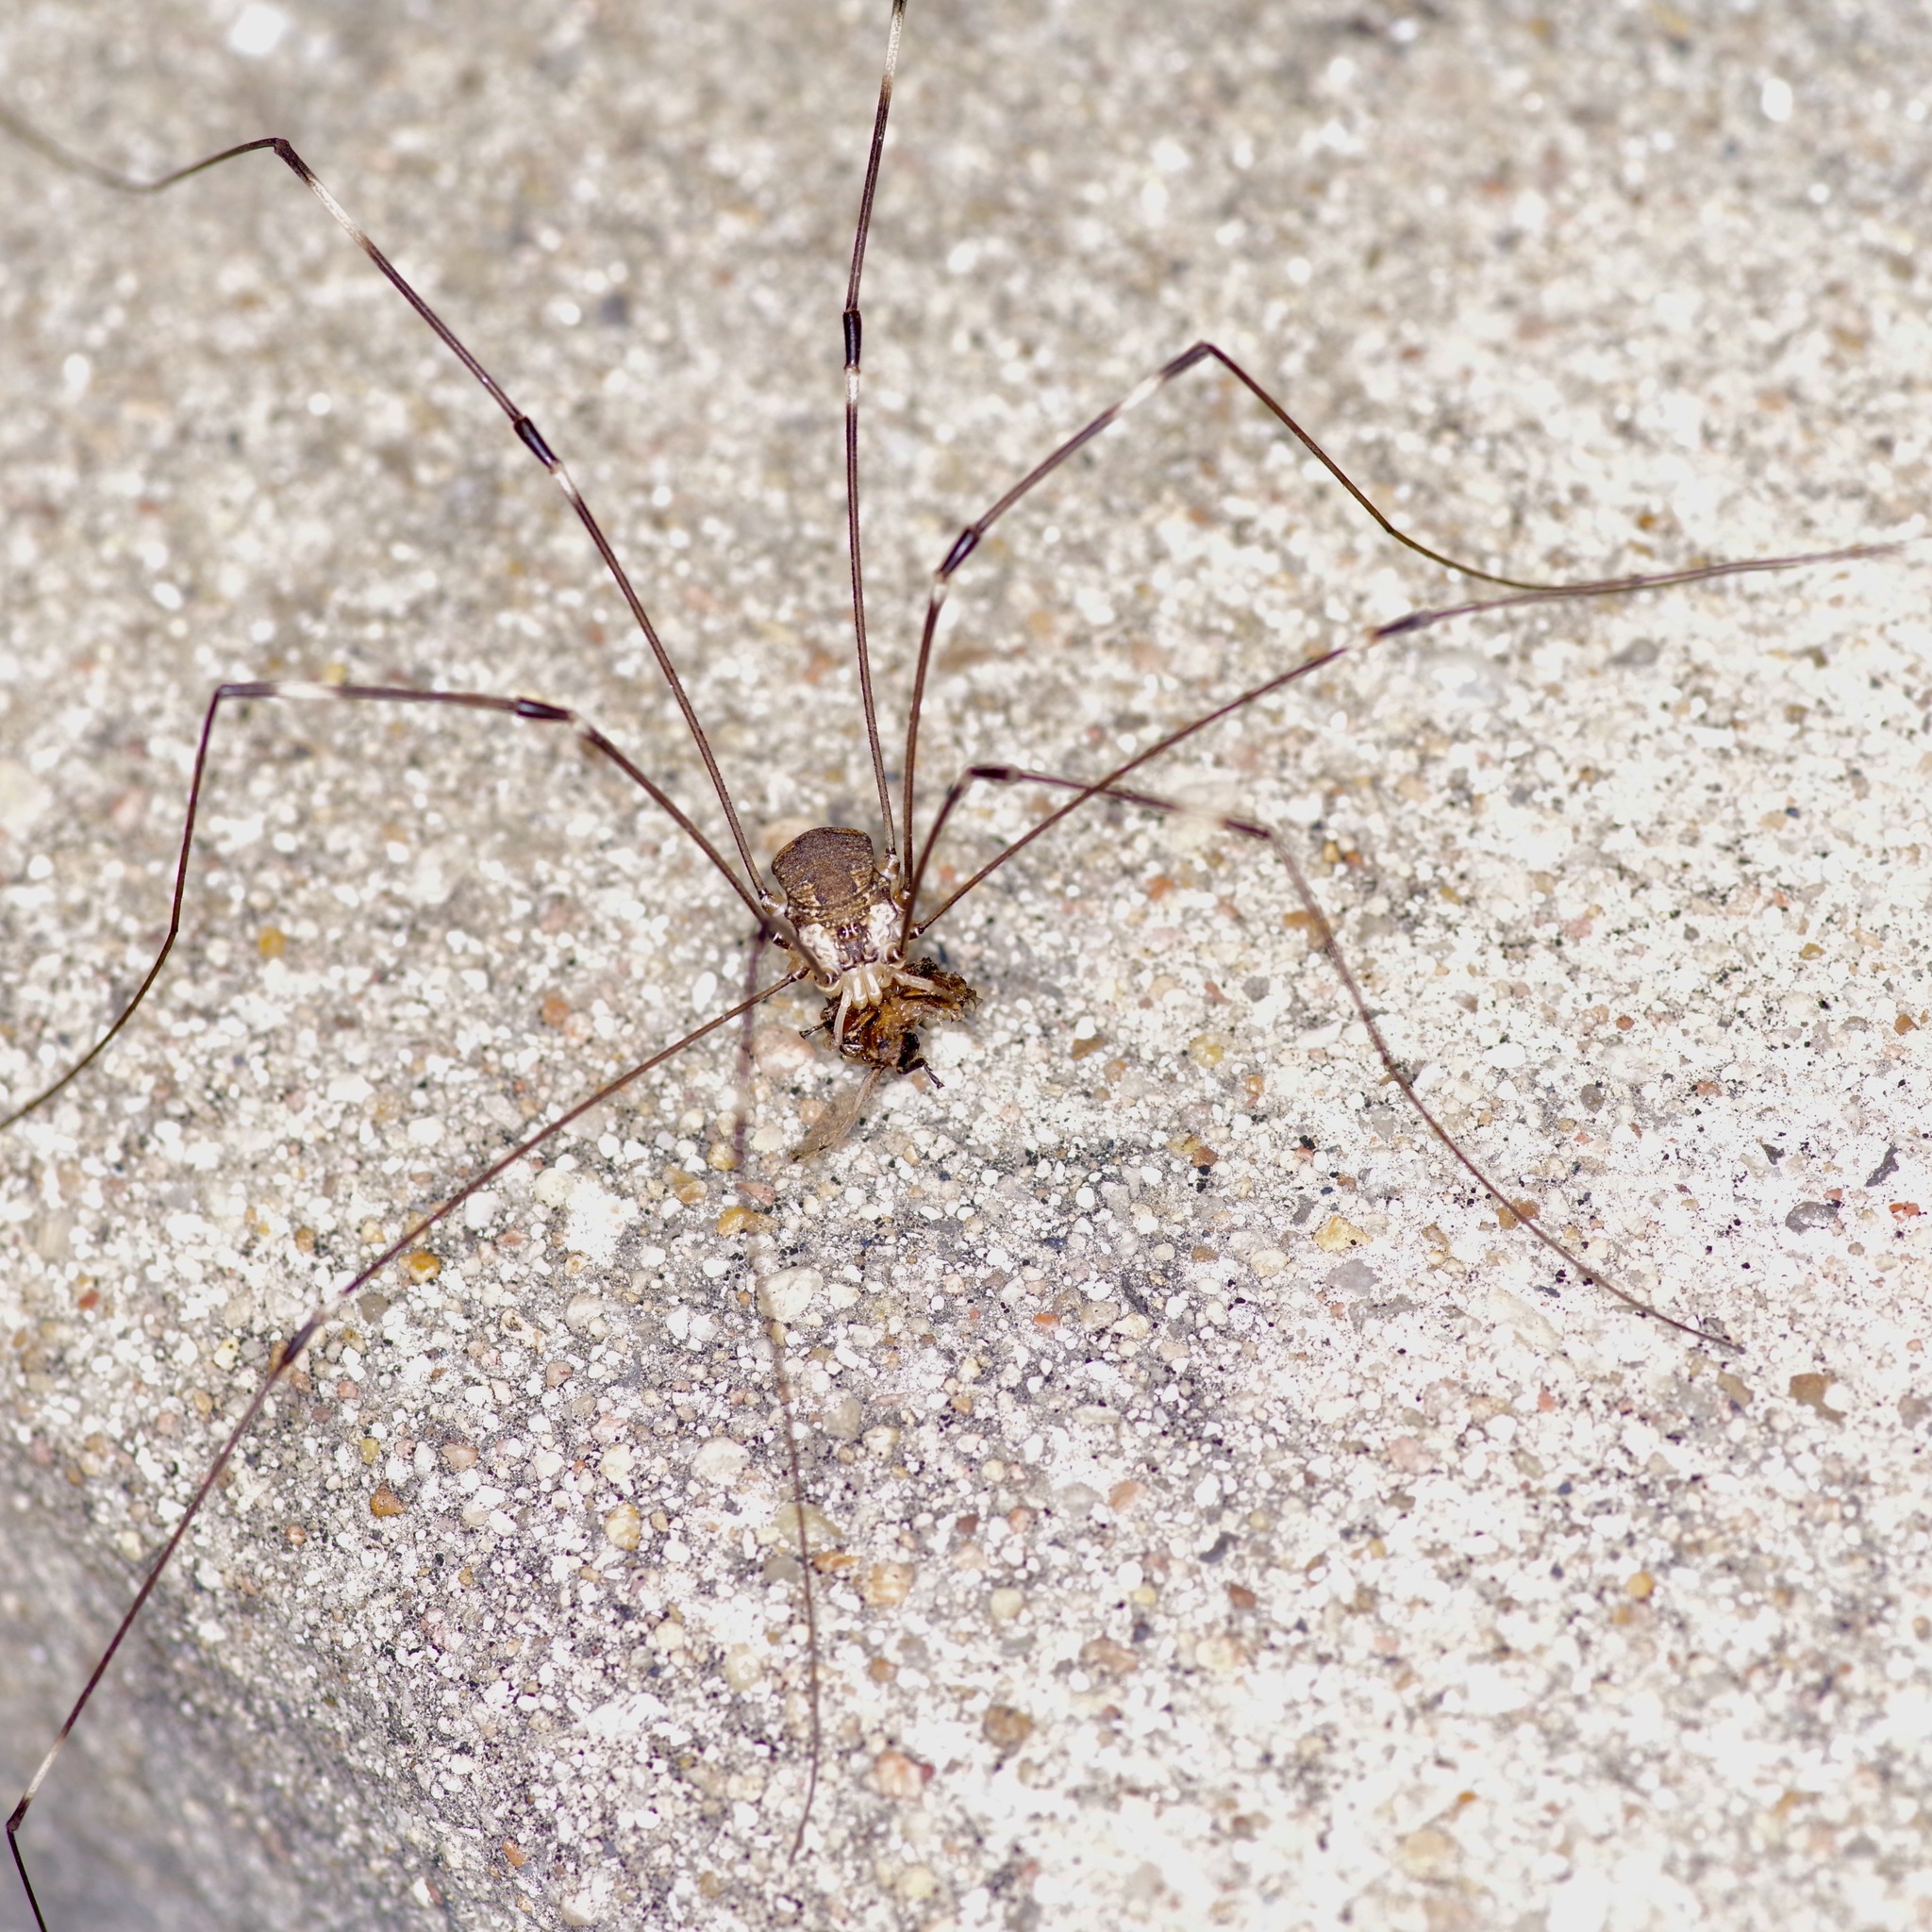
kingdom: Animalia
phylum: Arthropoda
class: Arachnida
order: Opiliones
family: Sclerosomatidae
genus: Leiobunum
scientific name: Leiobunum townsendi
